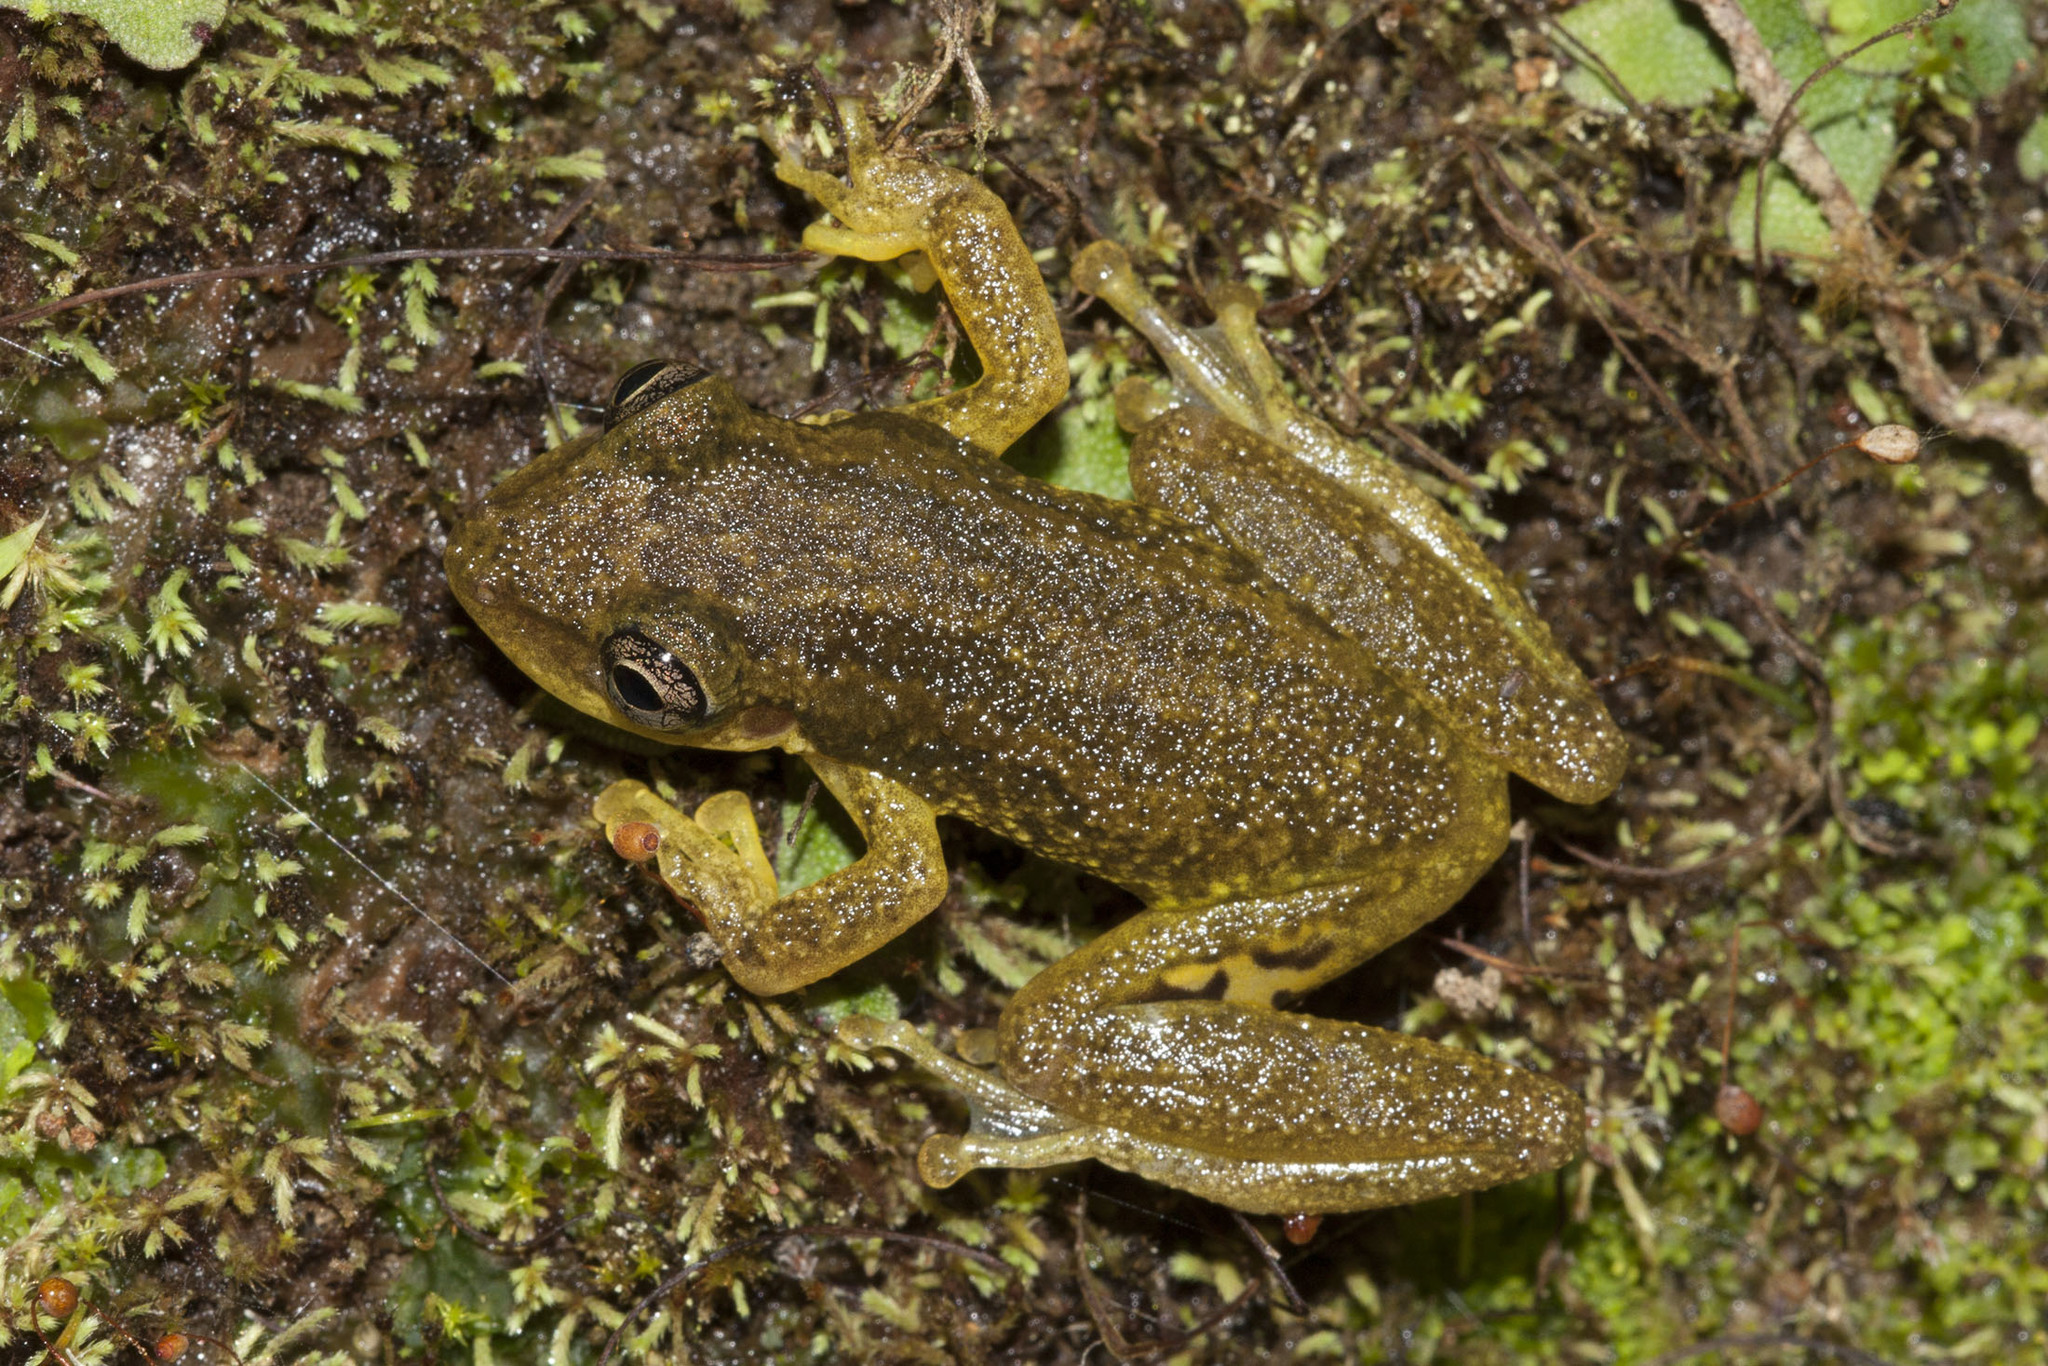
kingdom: Animalia
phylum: Chordata
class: Amphibia
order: Anura
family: Hylidae
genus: Scinax
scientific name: Scinax ruber
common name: Red snouted treefrog
